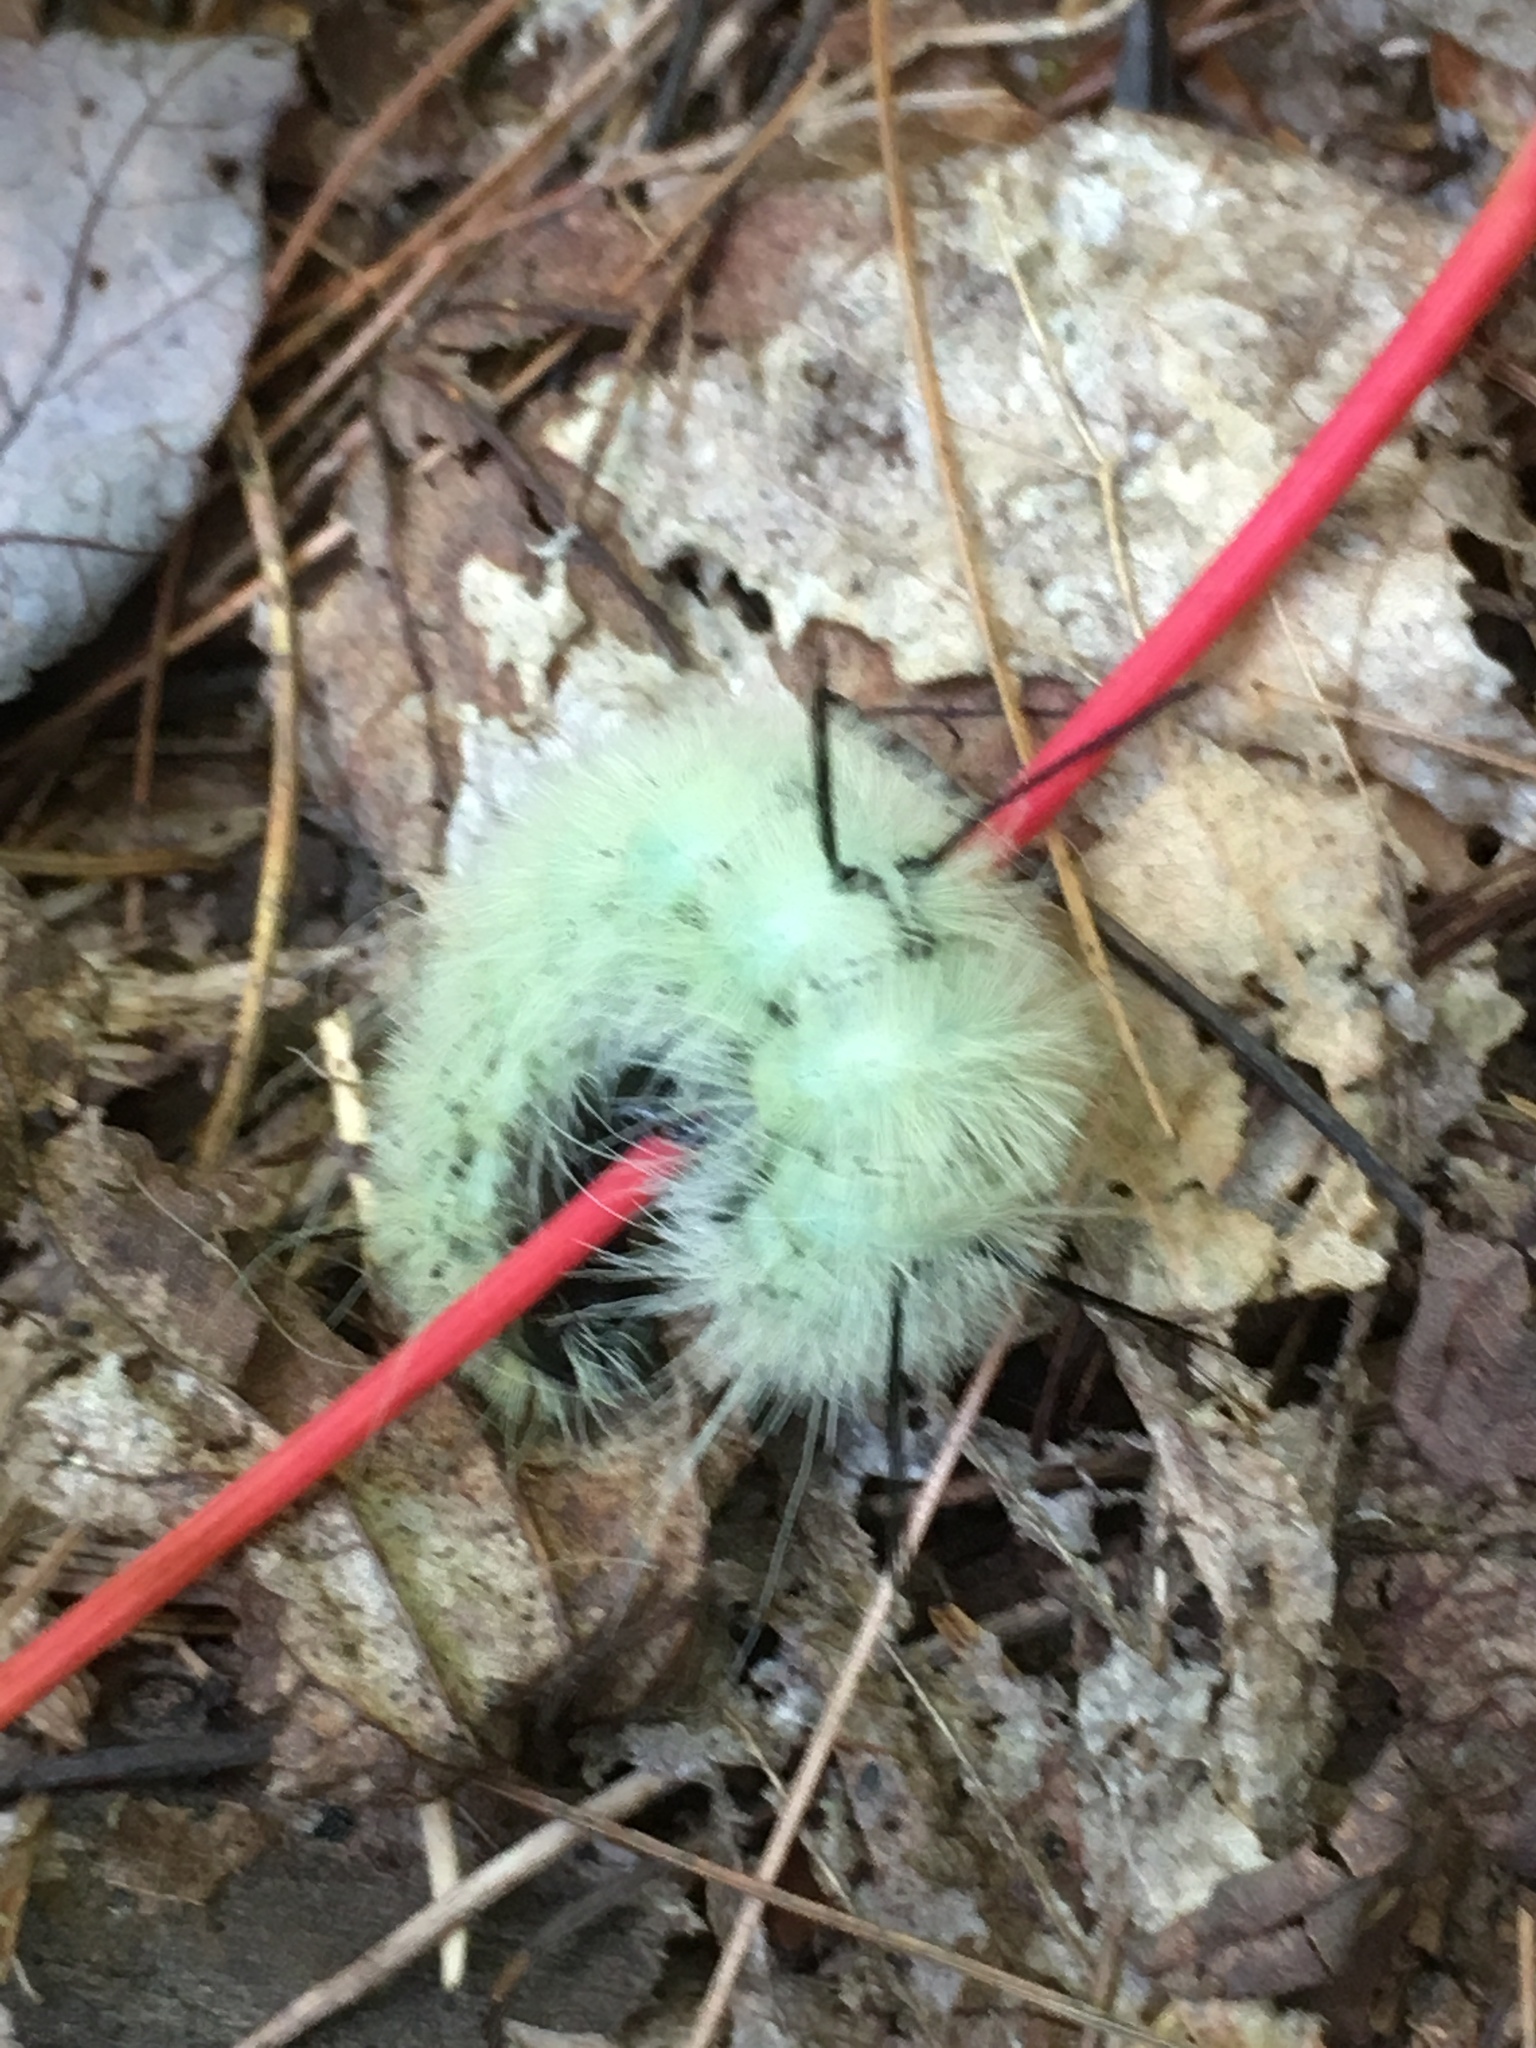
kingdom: Animalia
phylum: Arthropoda
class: Insecta
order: Lepidoptera
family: Noctuidae
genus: Acronicta
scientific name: Acronicta americana
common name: American dagger
